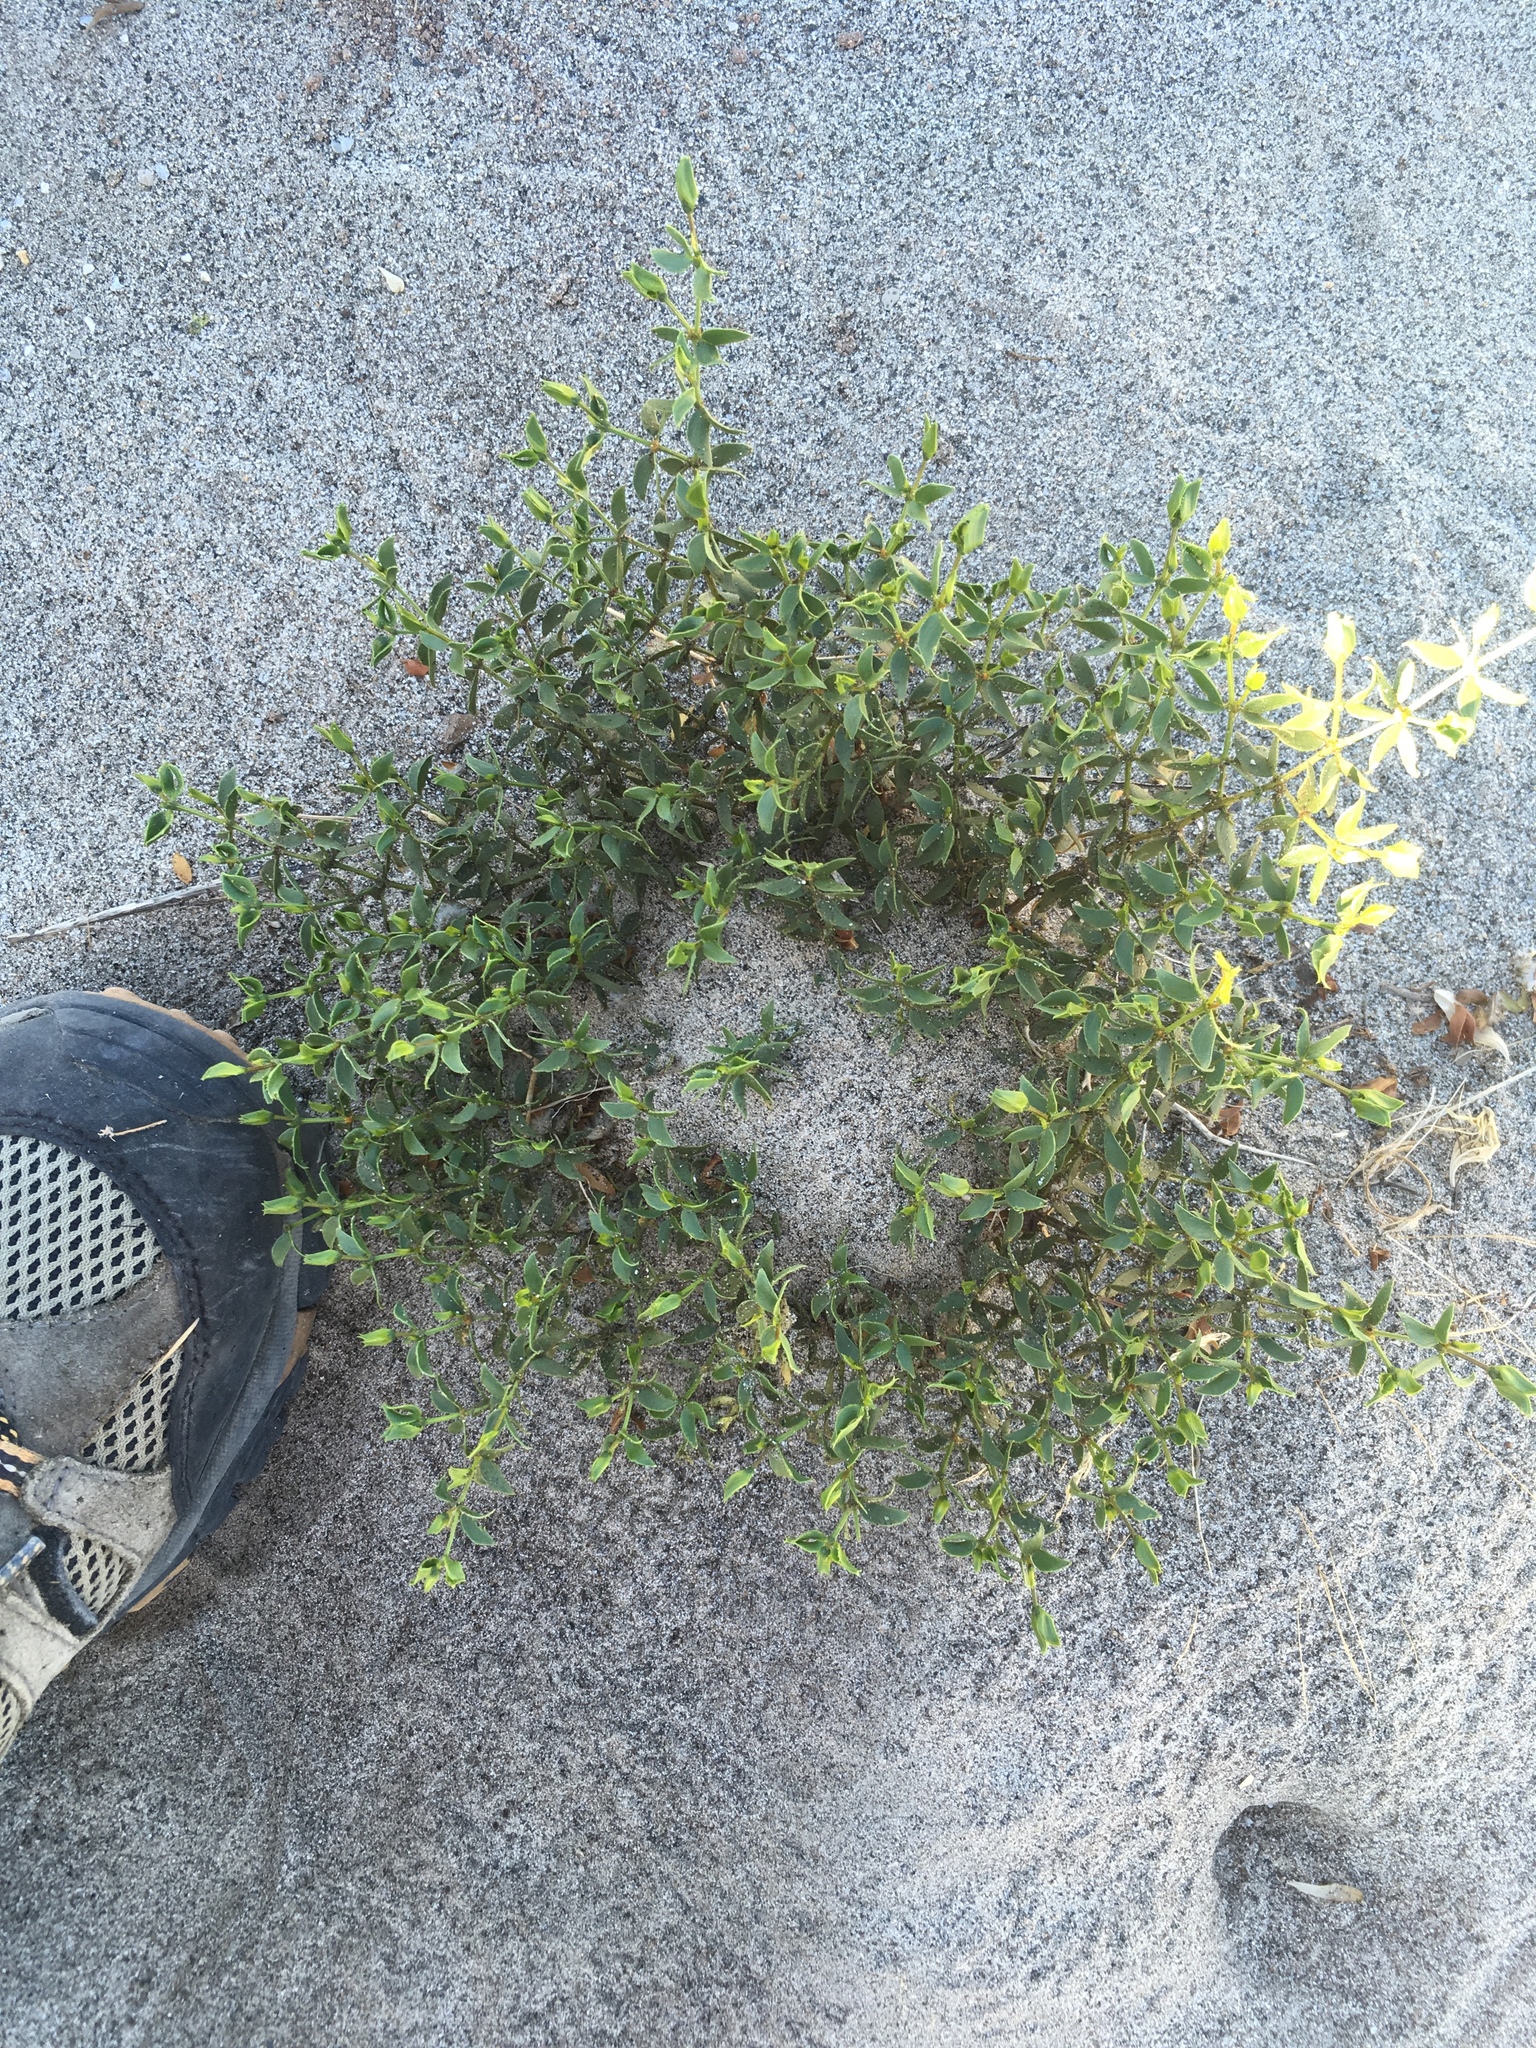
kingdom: Plantae
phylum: Tracheophyta
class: Magnoliopsida
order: Zygophyllales
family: Zygophyllaceae
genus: Larrea
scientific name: Larrea tridentata
